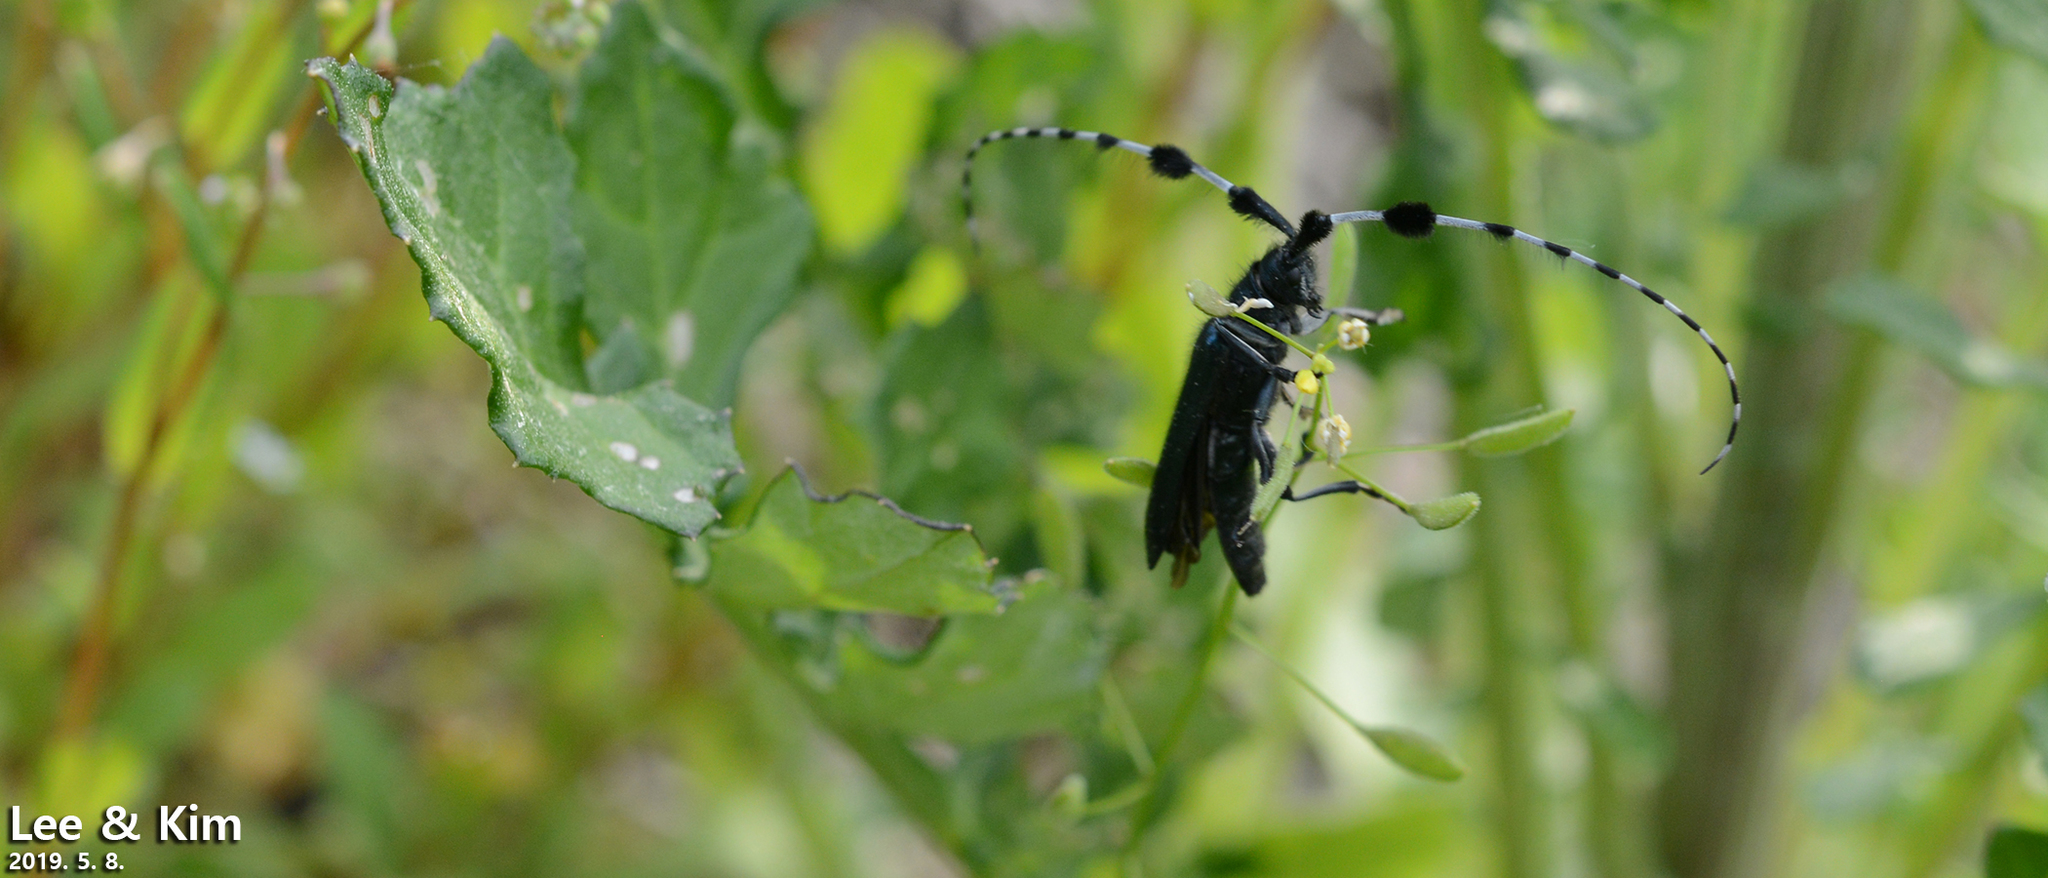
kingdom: Animalia
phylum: Arthropoda
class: Insecta
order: Coleoptera
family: Cerambycidae
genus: Agapanthia
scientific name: Agapanthia amurensis
